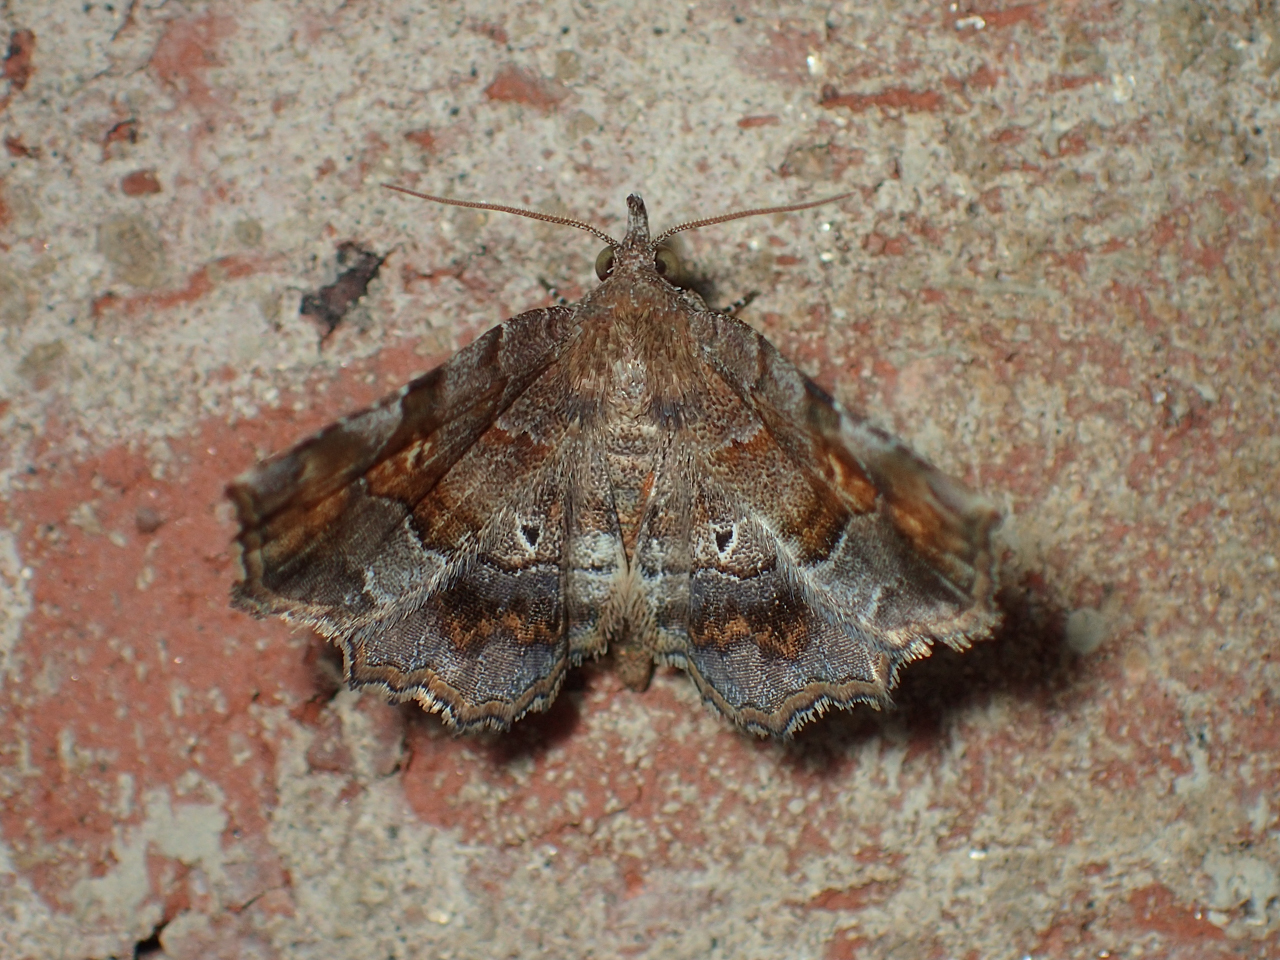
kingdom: Animalia
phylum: Arthropoda
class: Insecta
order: Lepidoptera
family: Erebidae
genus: Pangrapta
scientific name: Pangrapta decoralis
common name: Decorated owlet
